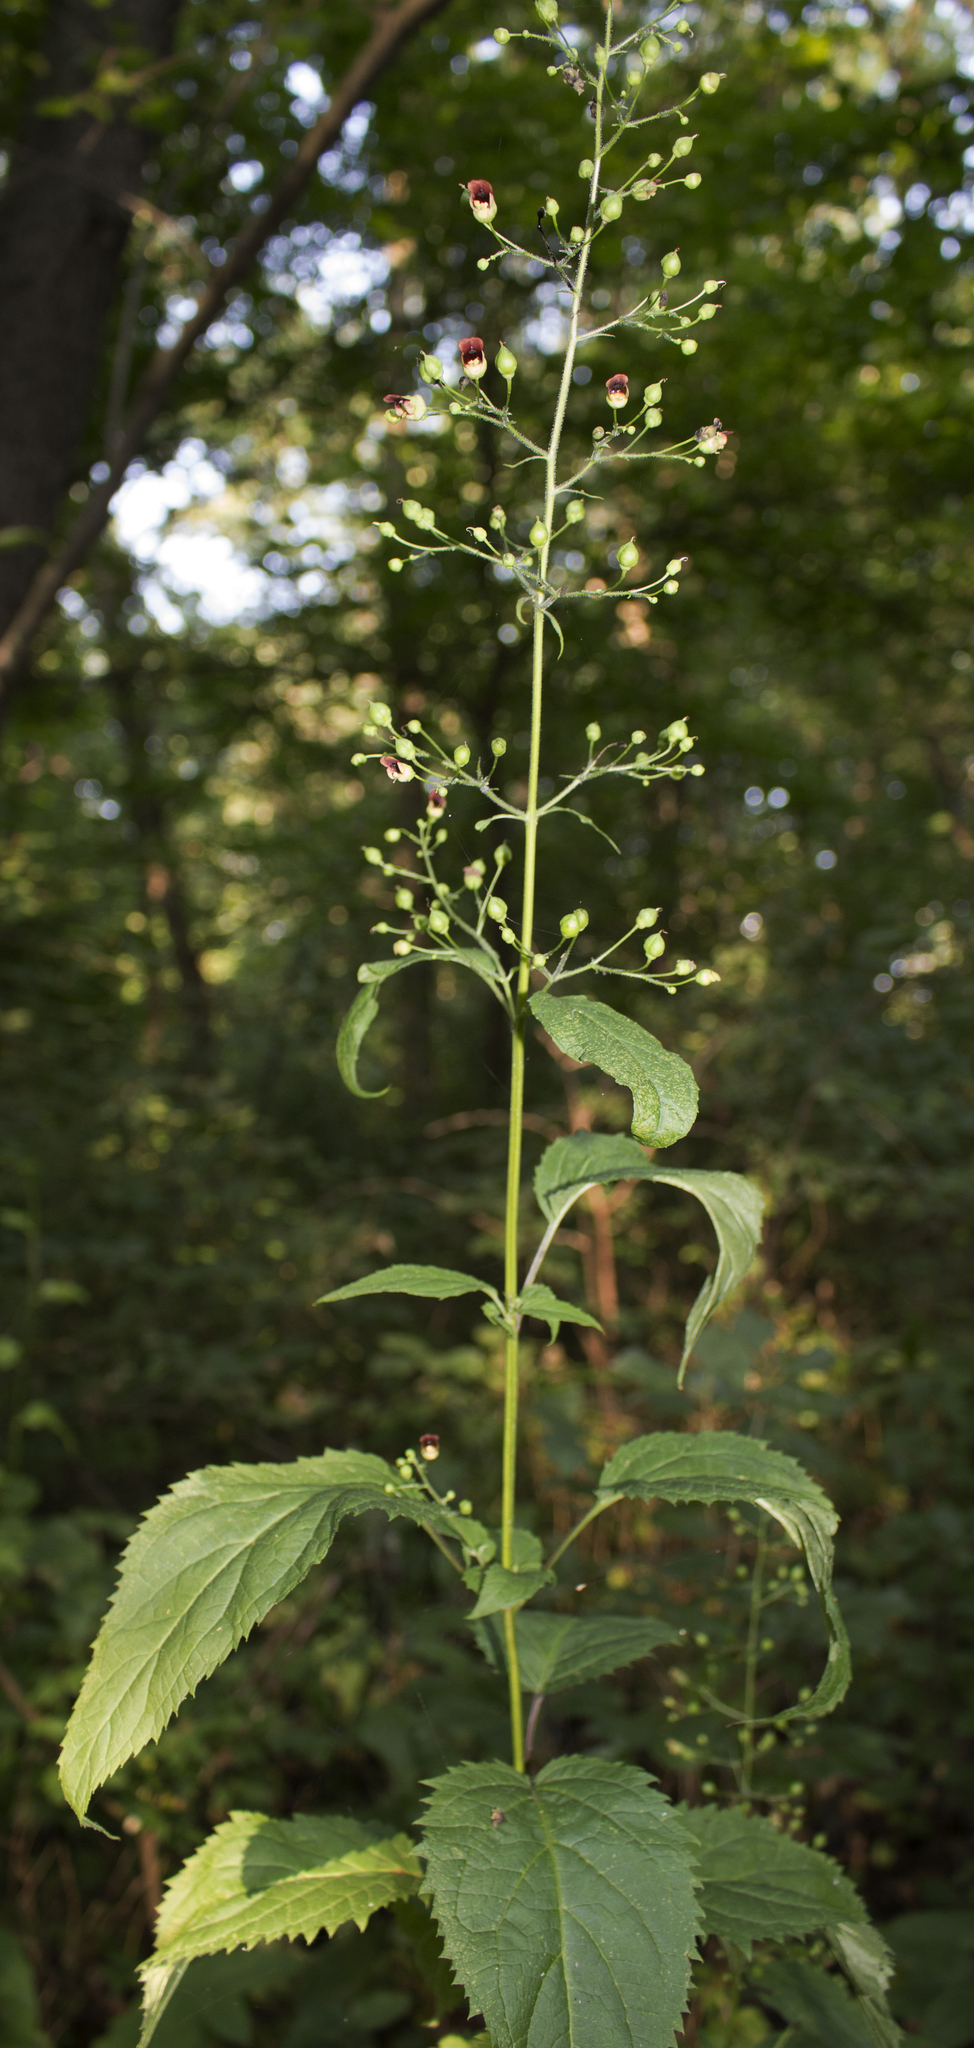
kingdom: Plantae
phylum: Tracheophyta
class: Magnoliopsida
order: Lamiales
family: Scrophulariaceae
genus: Scrophularia
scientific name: Scrophularia marilandica
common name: Eastern figwort
